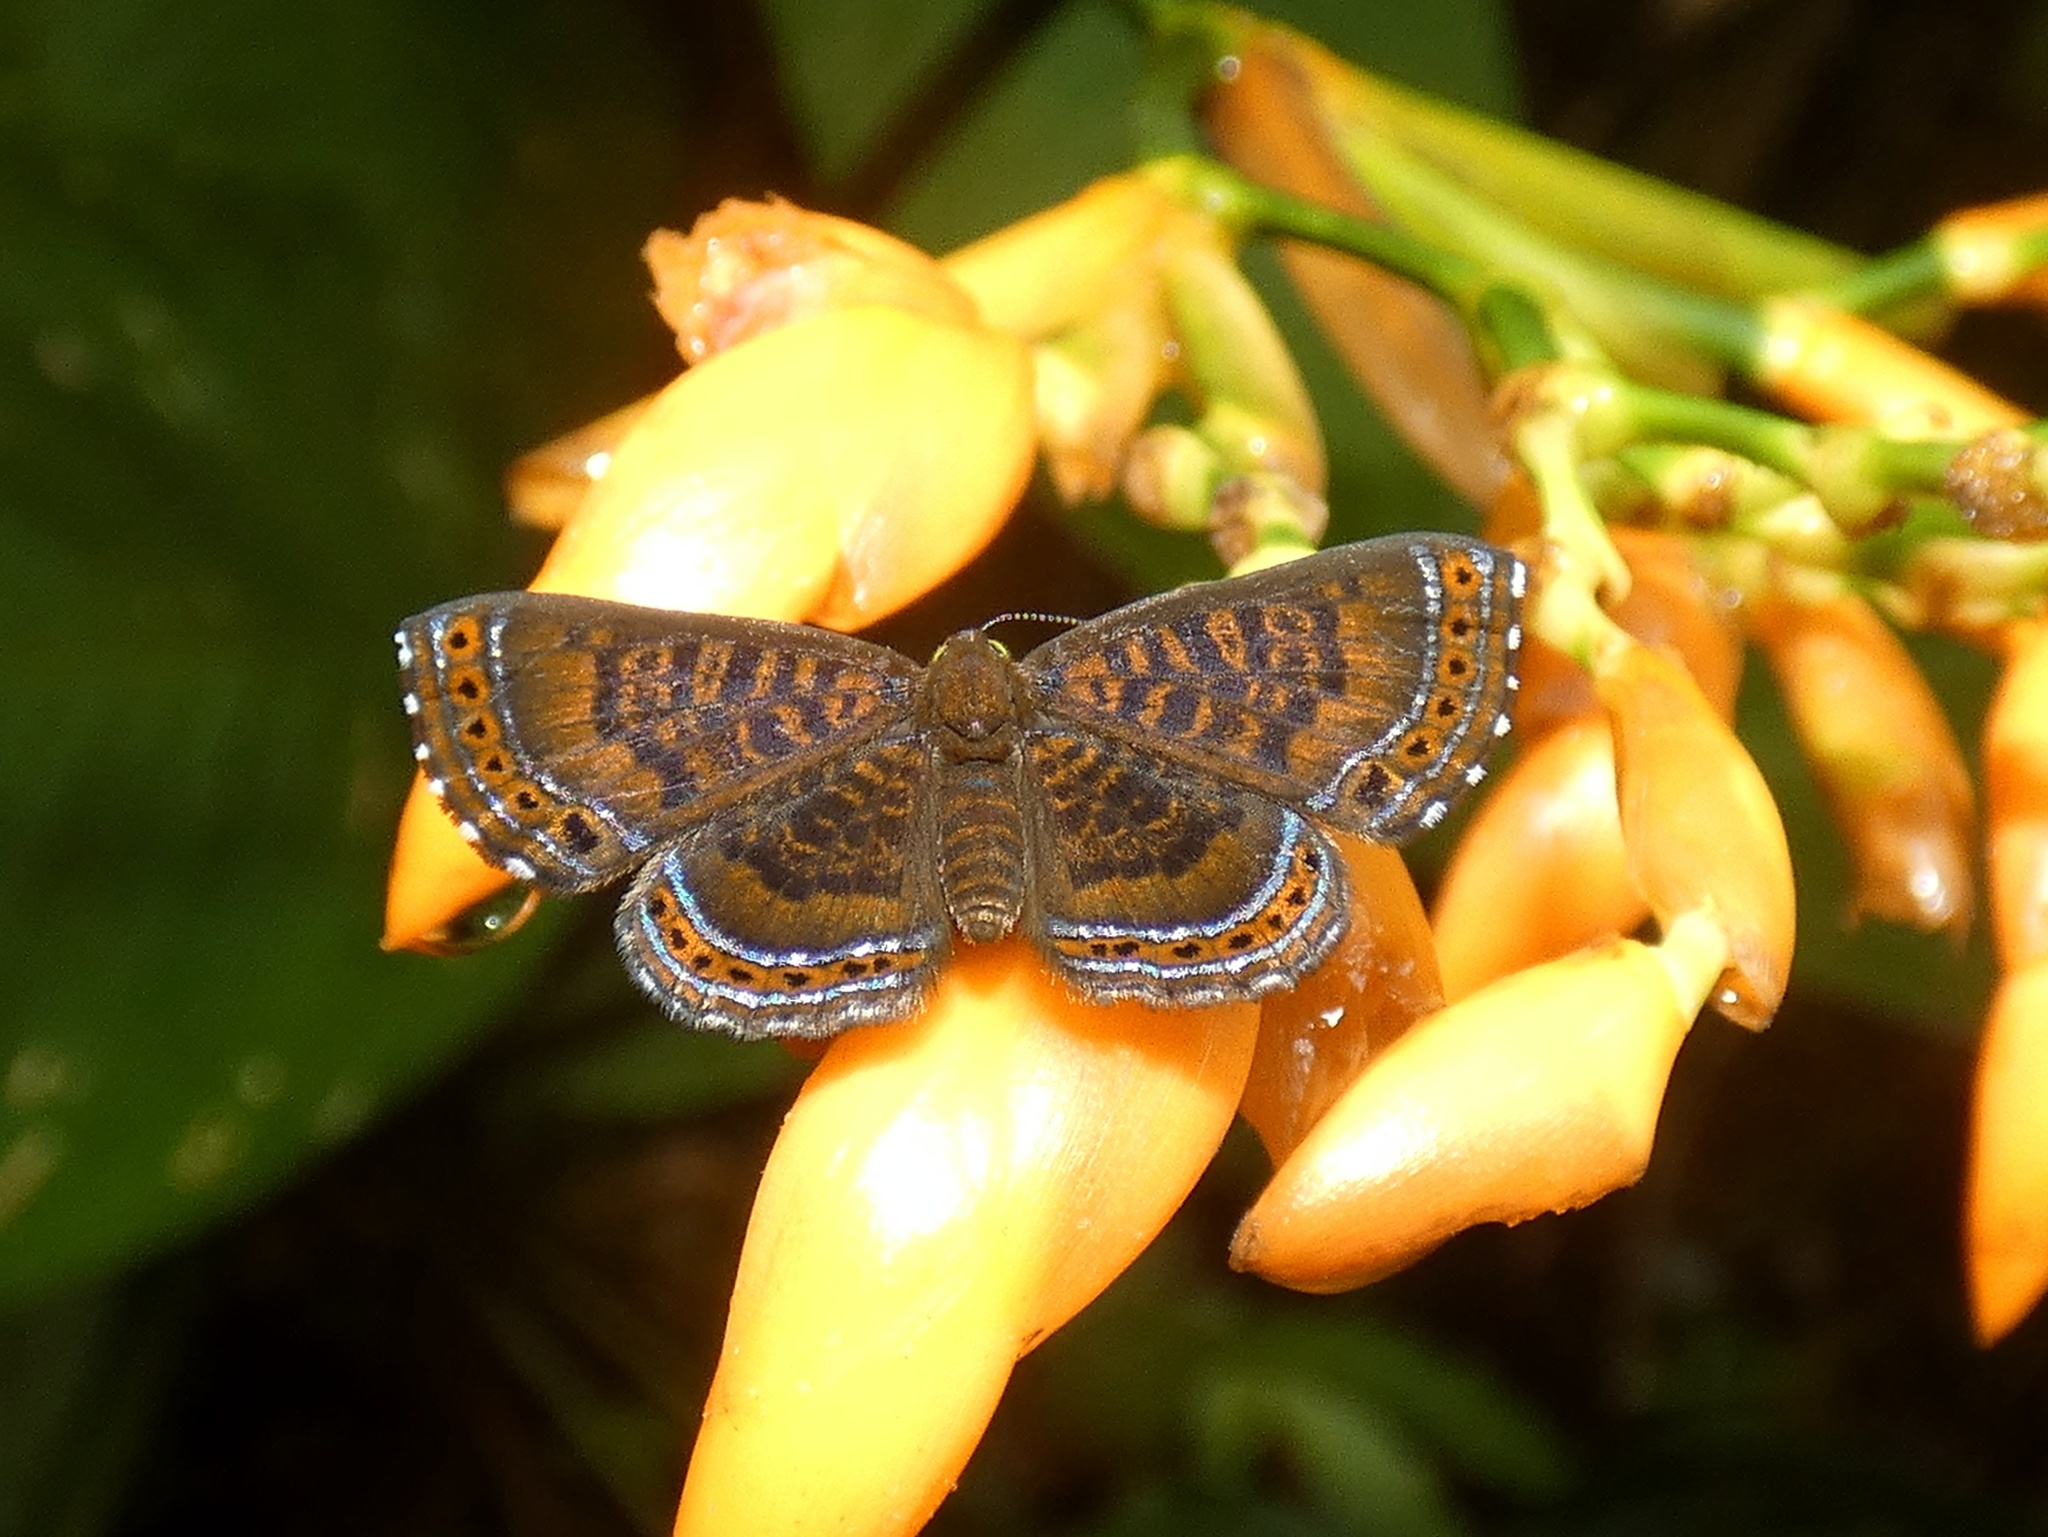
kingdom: Animalia
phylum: Arthropoda
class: Insecta
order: Lepidoptera
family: Riodinidae
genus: Detritivora
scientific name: Detritivora hermodora
